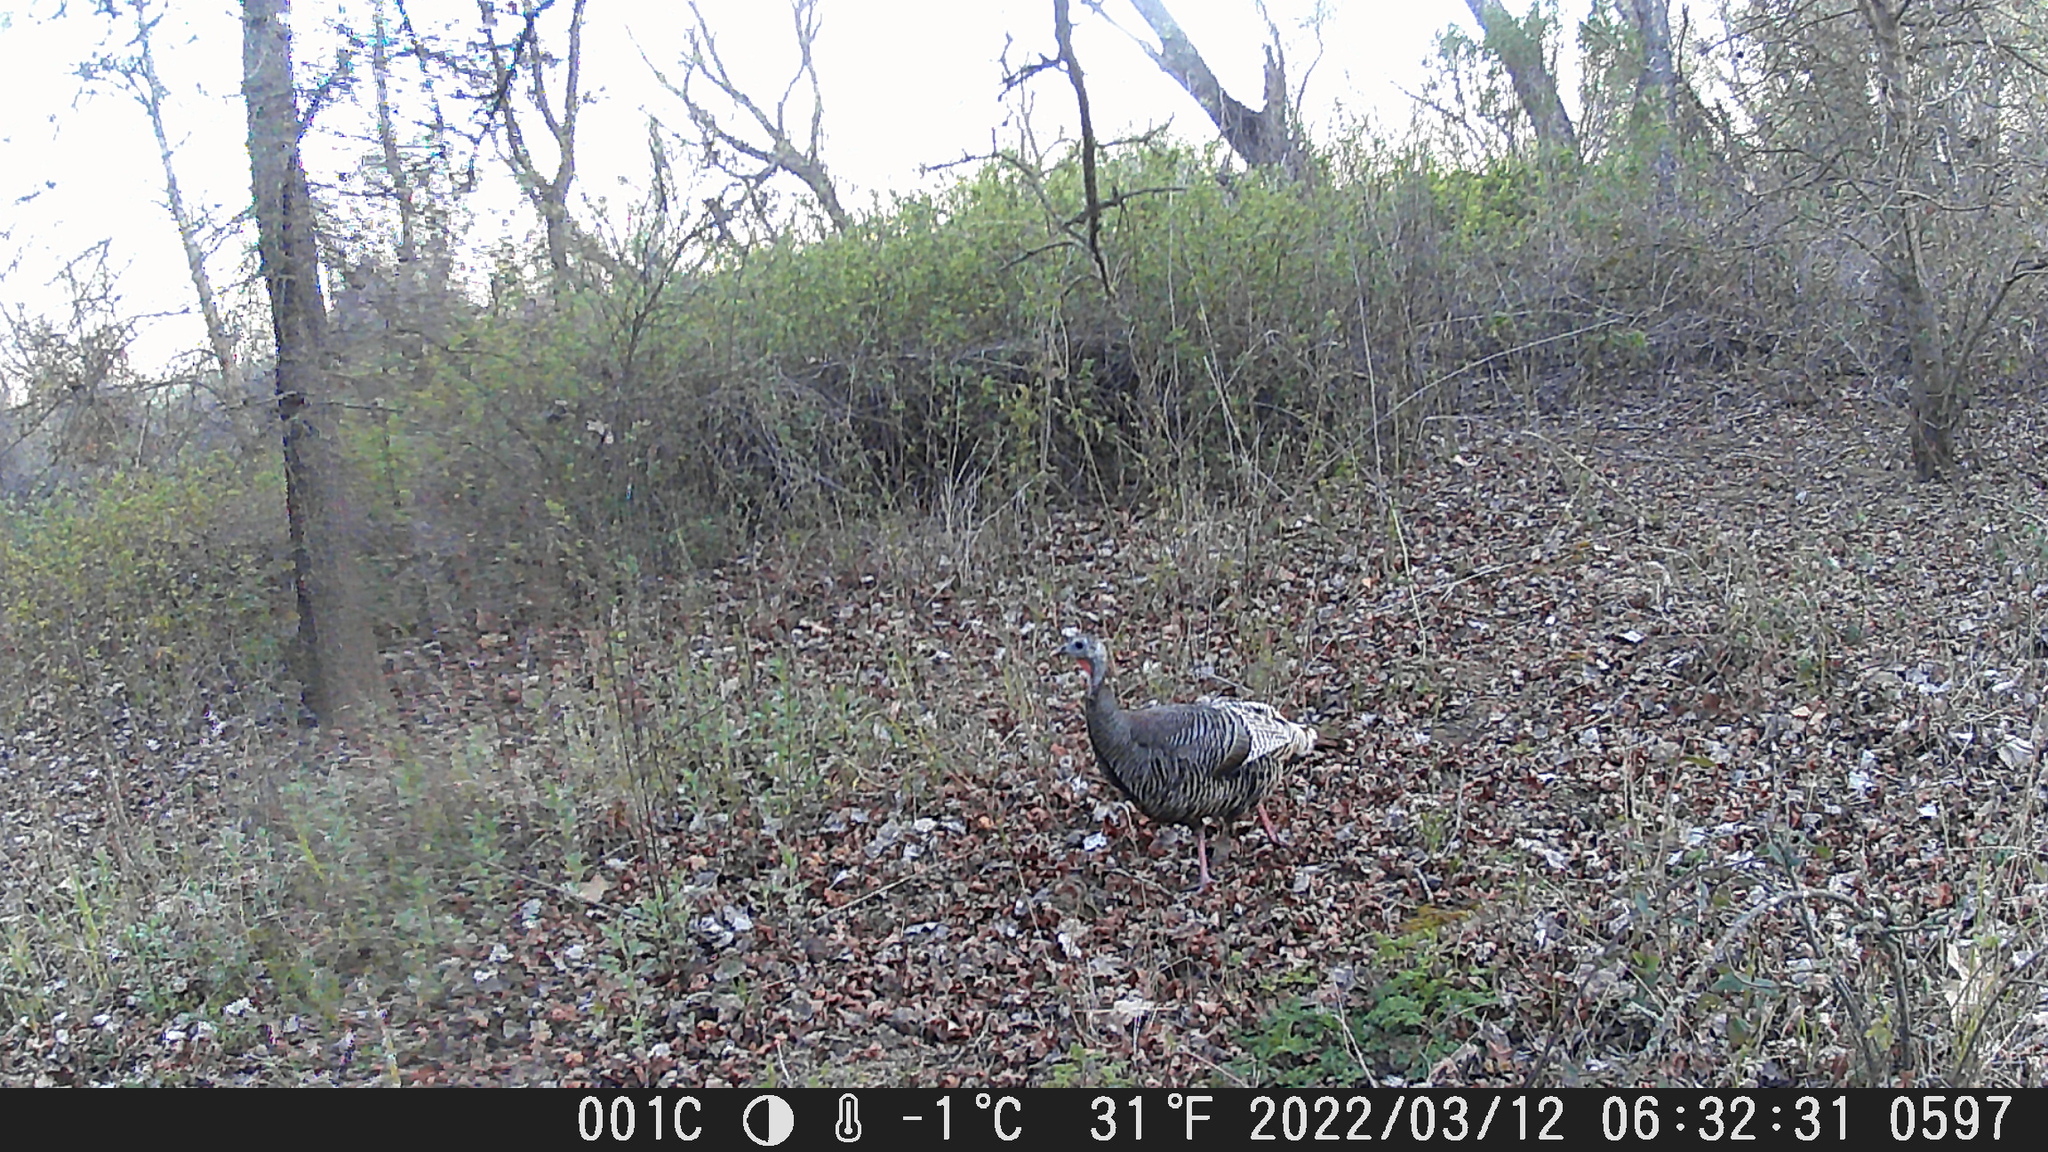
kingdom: Animalia
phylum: Chordata
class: Aves
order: Galliformes
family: Phasianidae
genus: Meleagris
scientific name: Meleagris gallopavo
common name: Wild turkey
